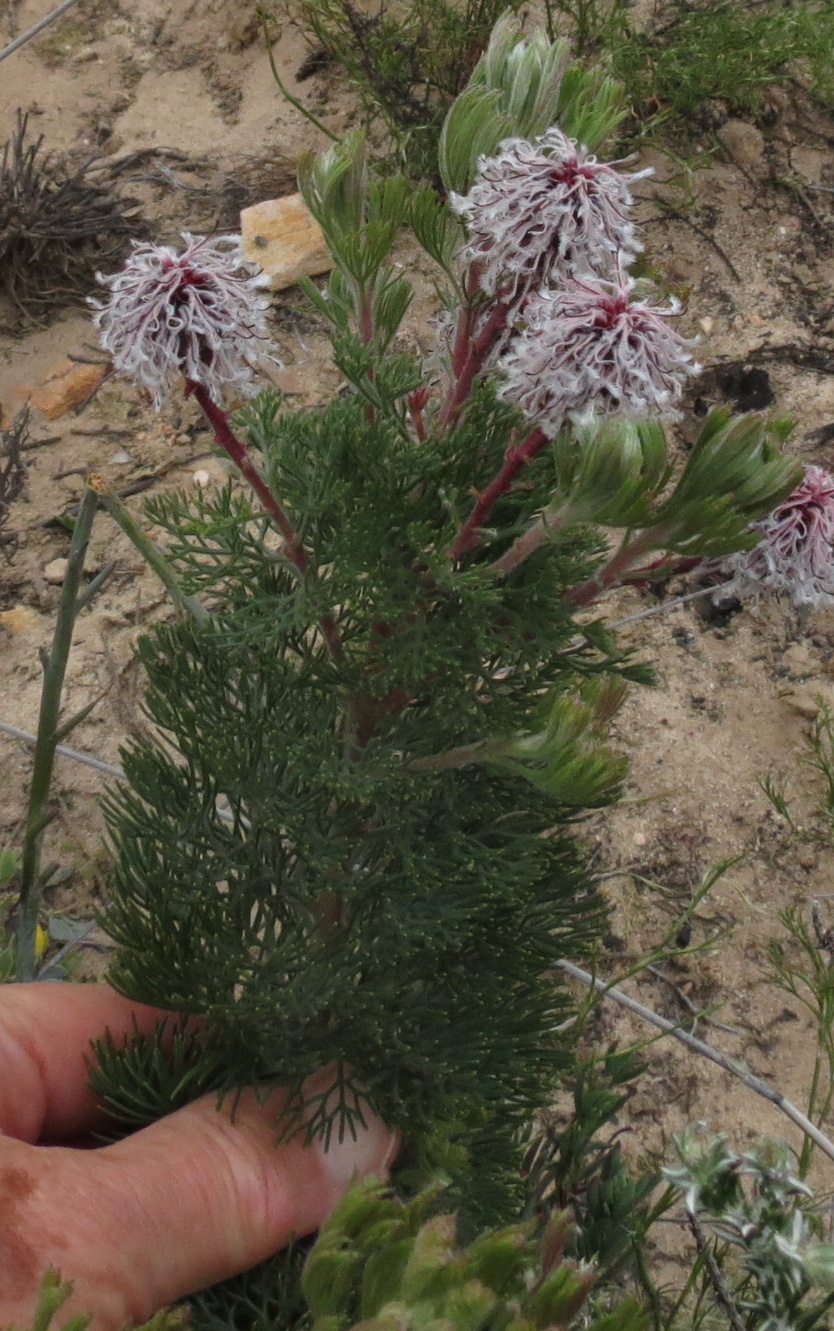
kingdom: Plantae
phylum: Tracheophyta
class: Magnoliopsida
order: Proteales
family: Proteaceae
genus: Serruria
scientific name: Serruria aitonii
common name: Marshmallow spiderhead
